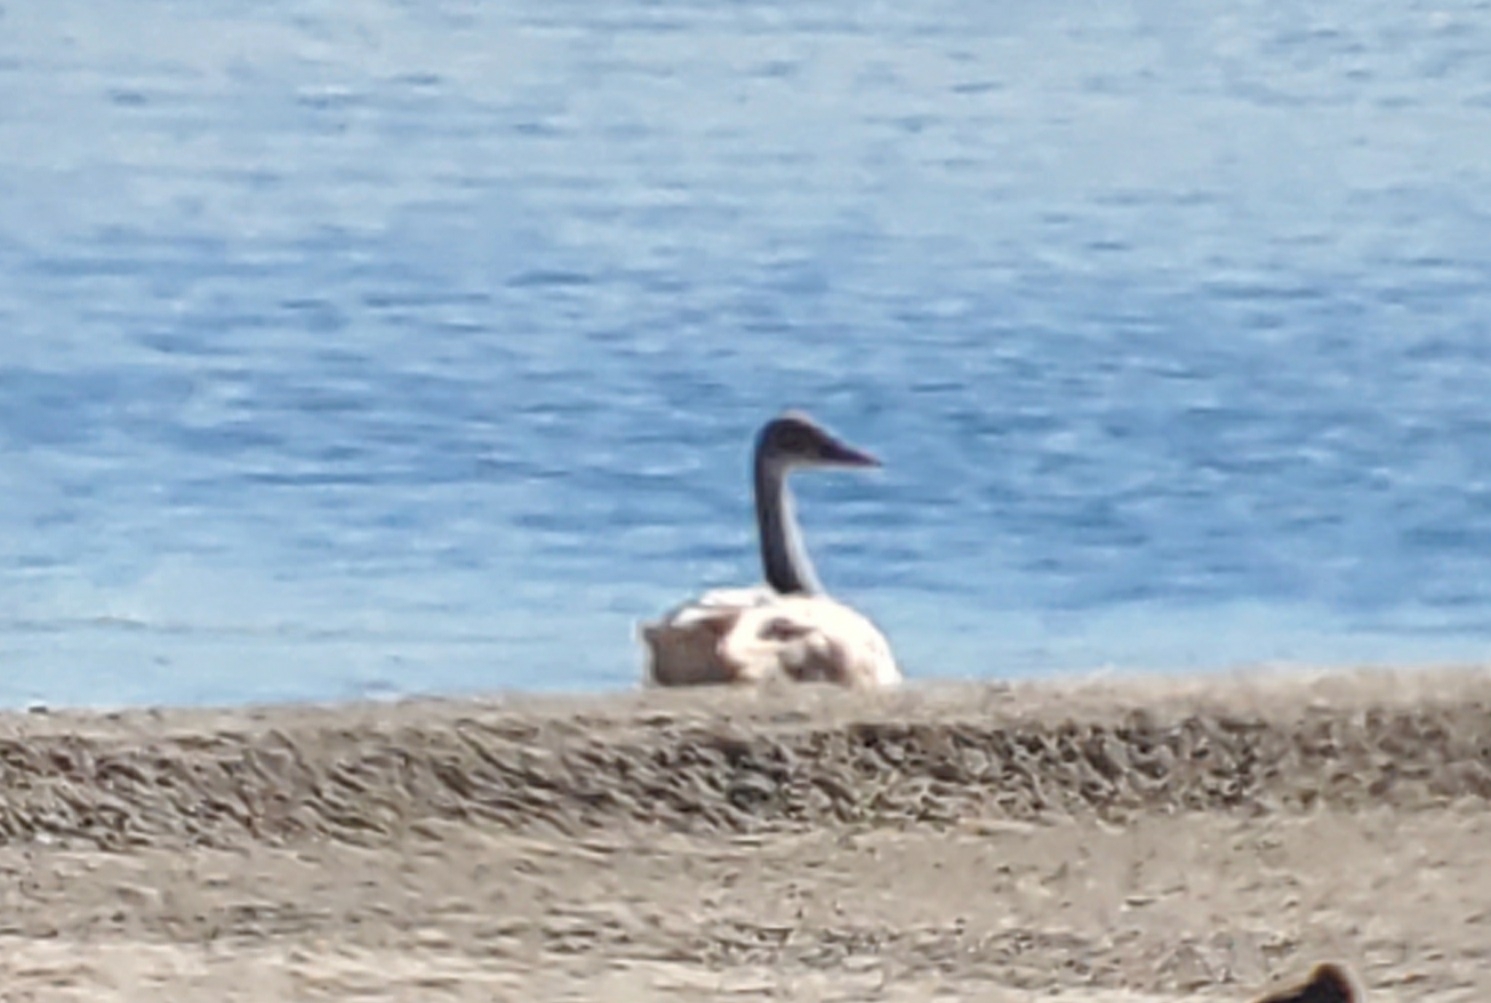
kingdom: Animalia
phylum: Chordata
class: Aves
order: Anseriformes
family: Anatidae
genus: Cygnus
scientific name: Cygnus columbianus
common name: Tundra swan
